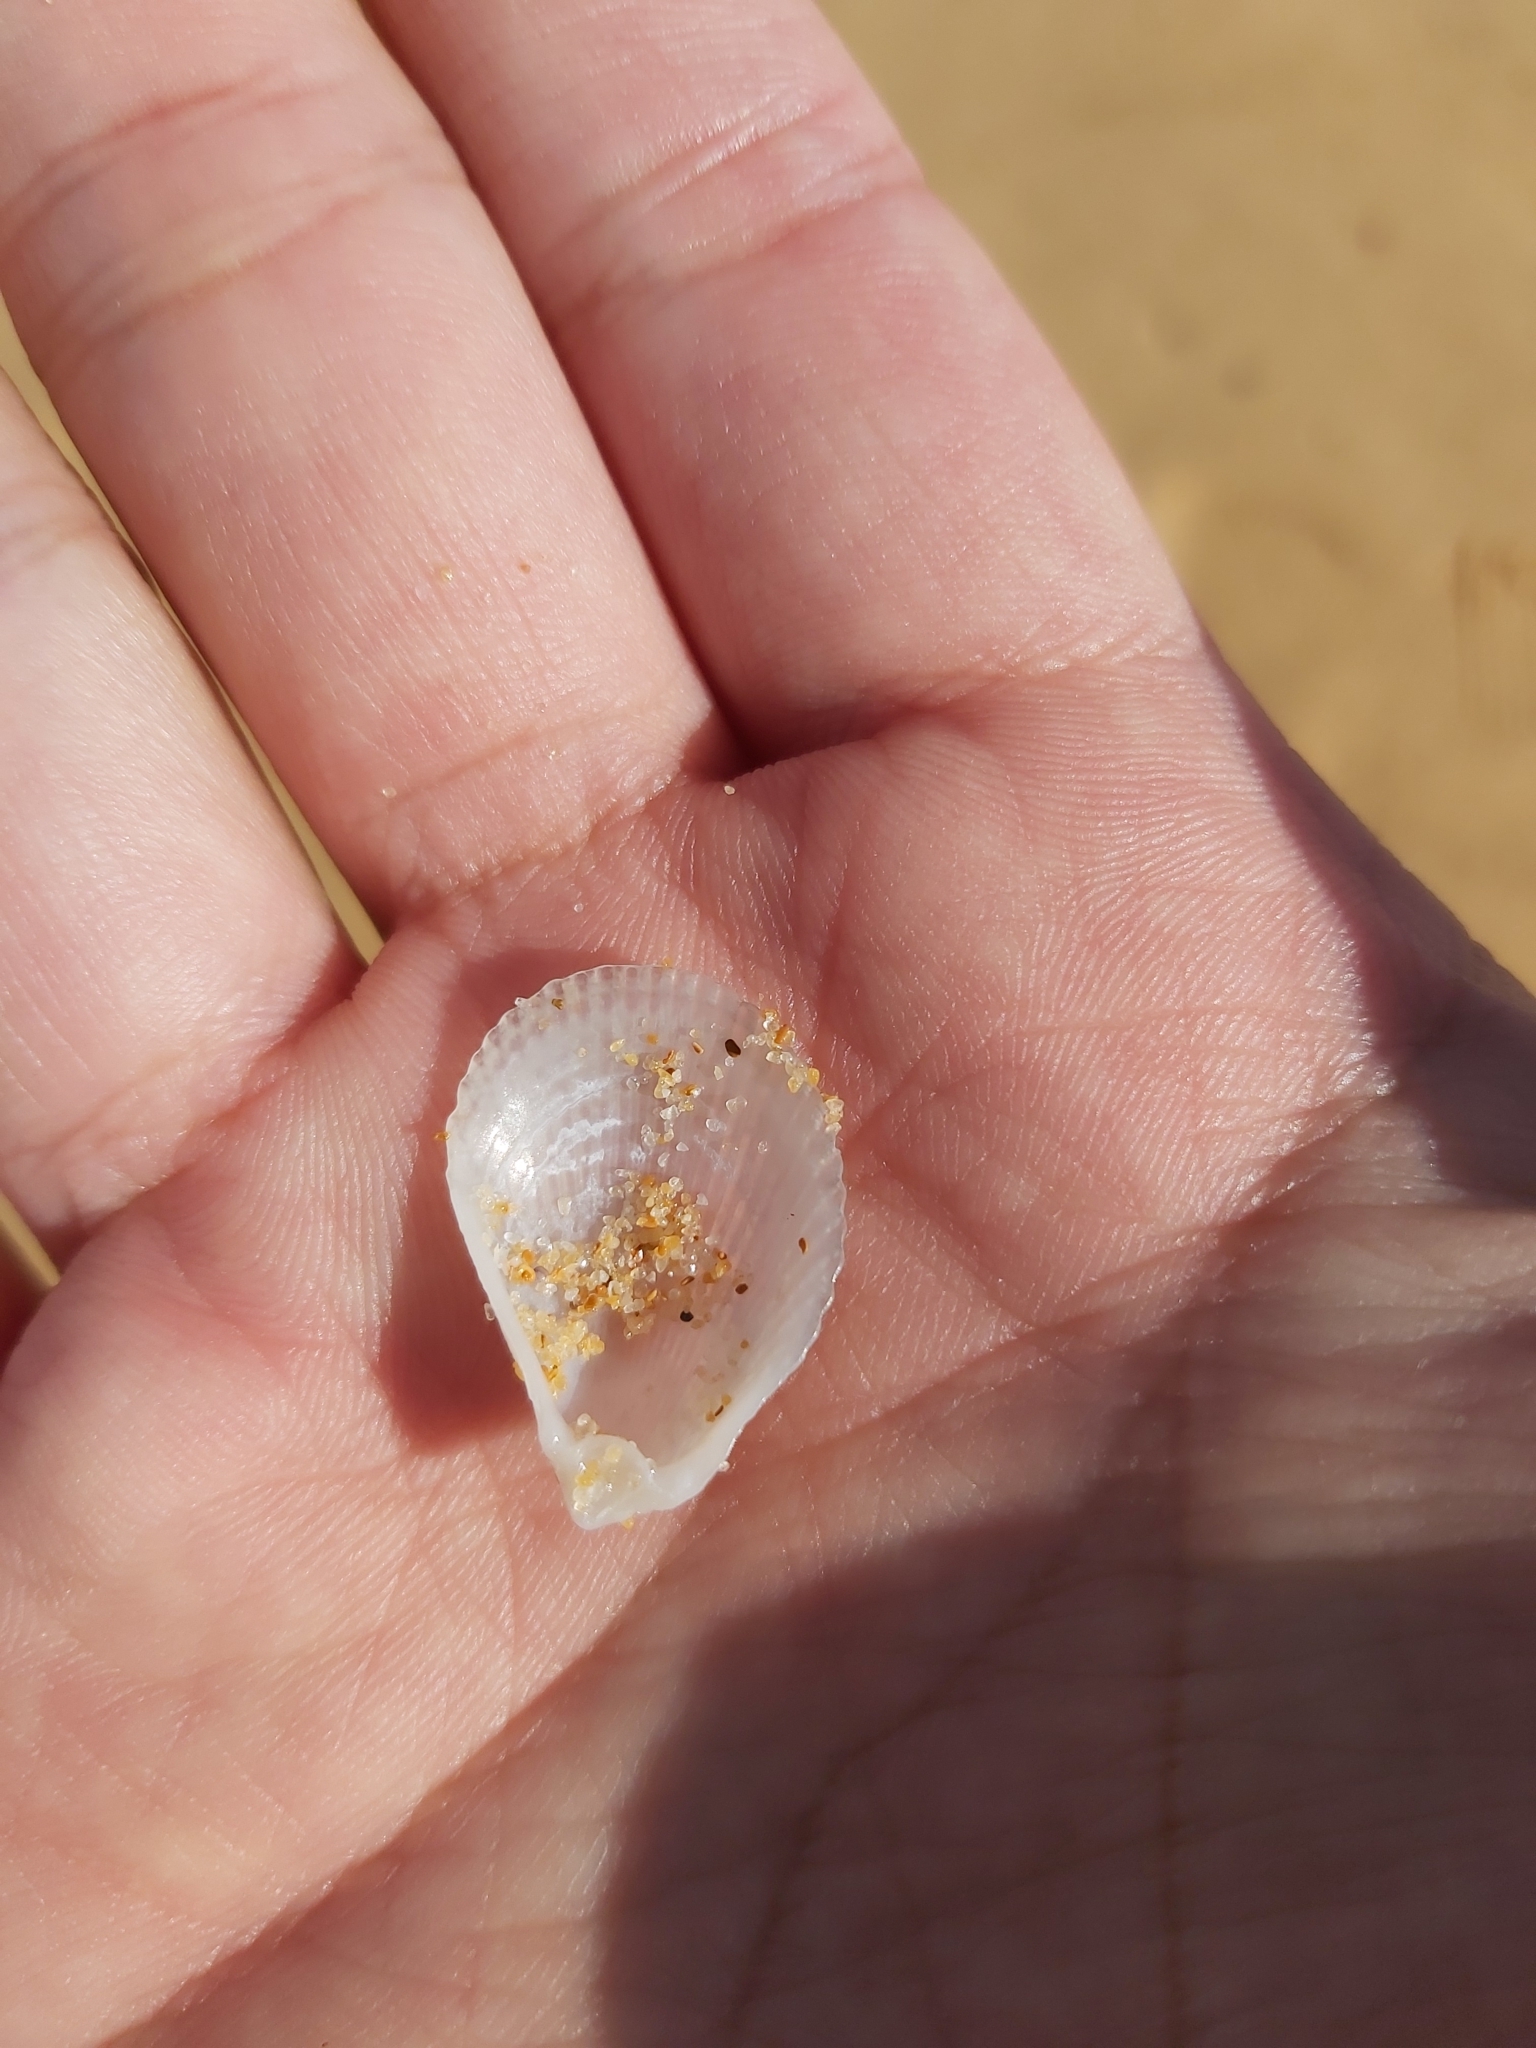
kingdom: Animalia
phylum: Mollusca
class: Bivalvia
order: Limida
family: Limidae
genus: Lima
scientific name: Lima nimbifer
